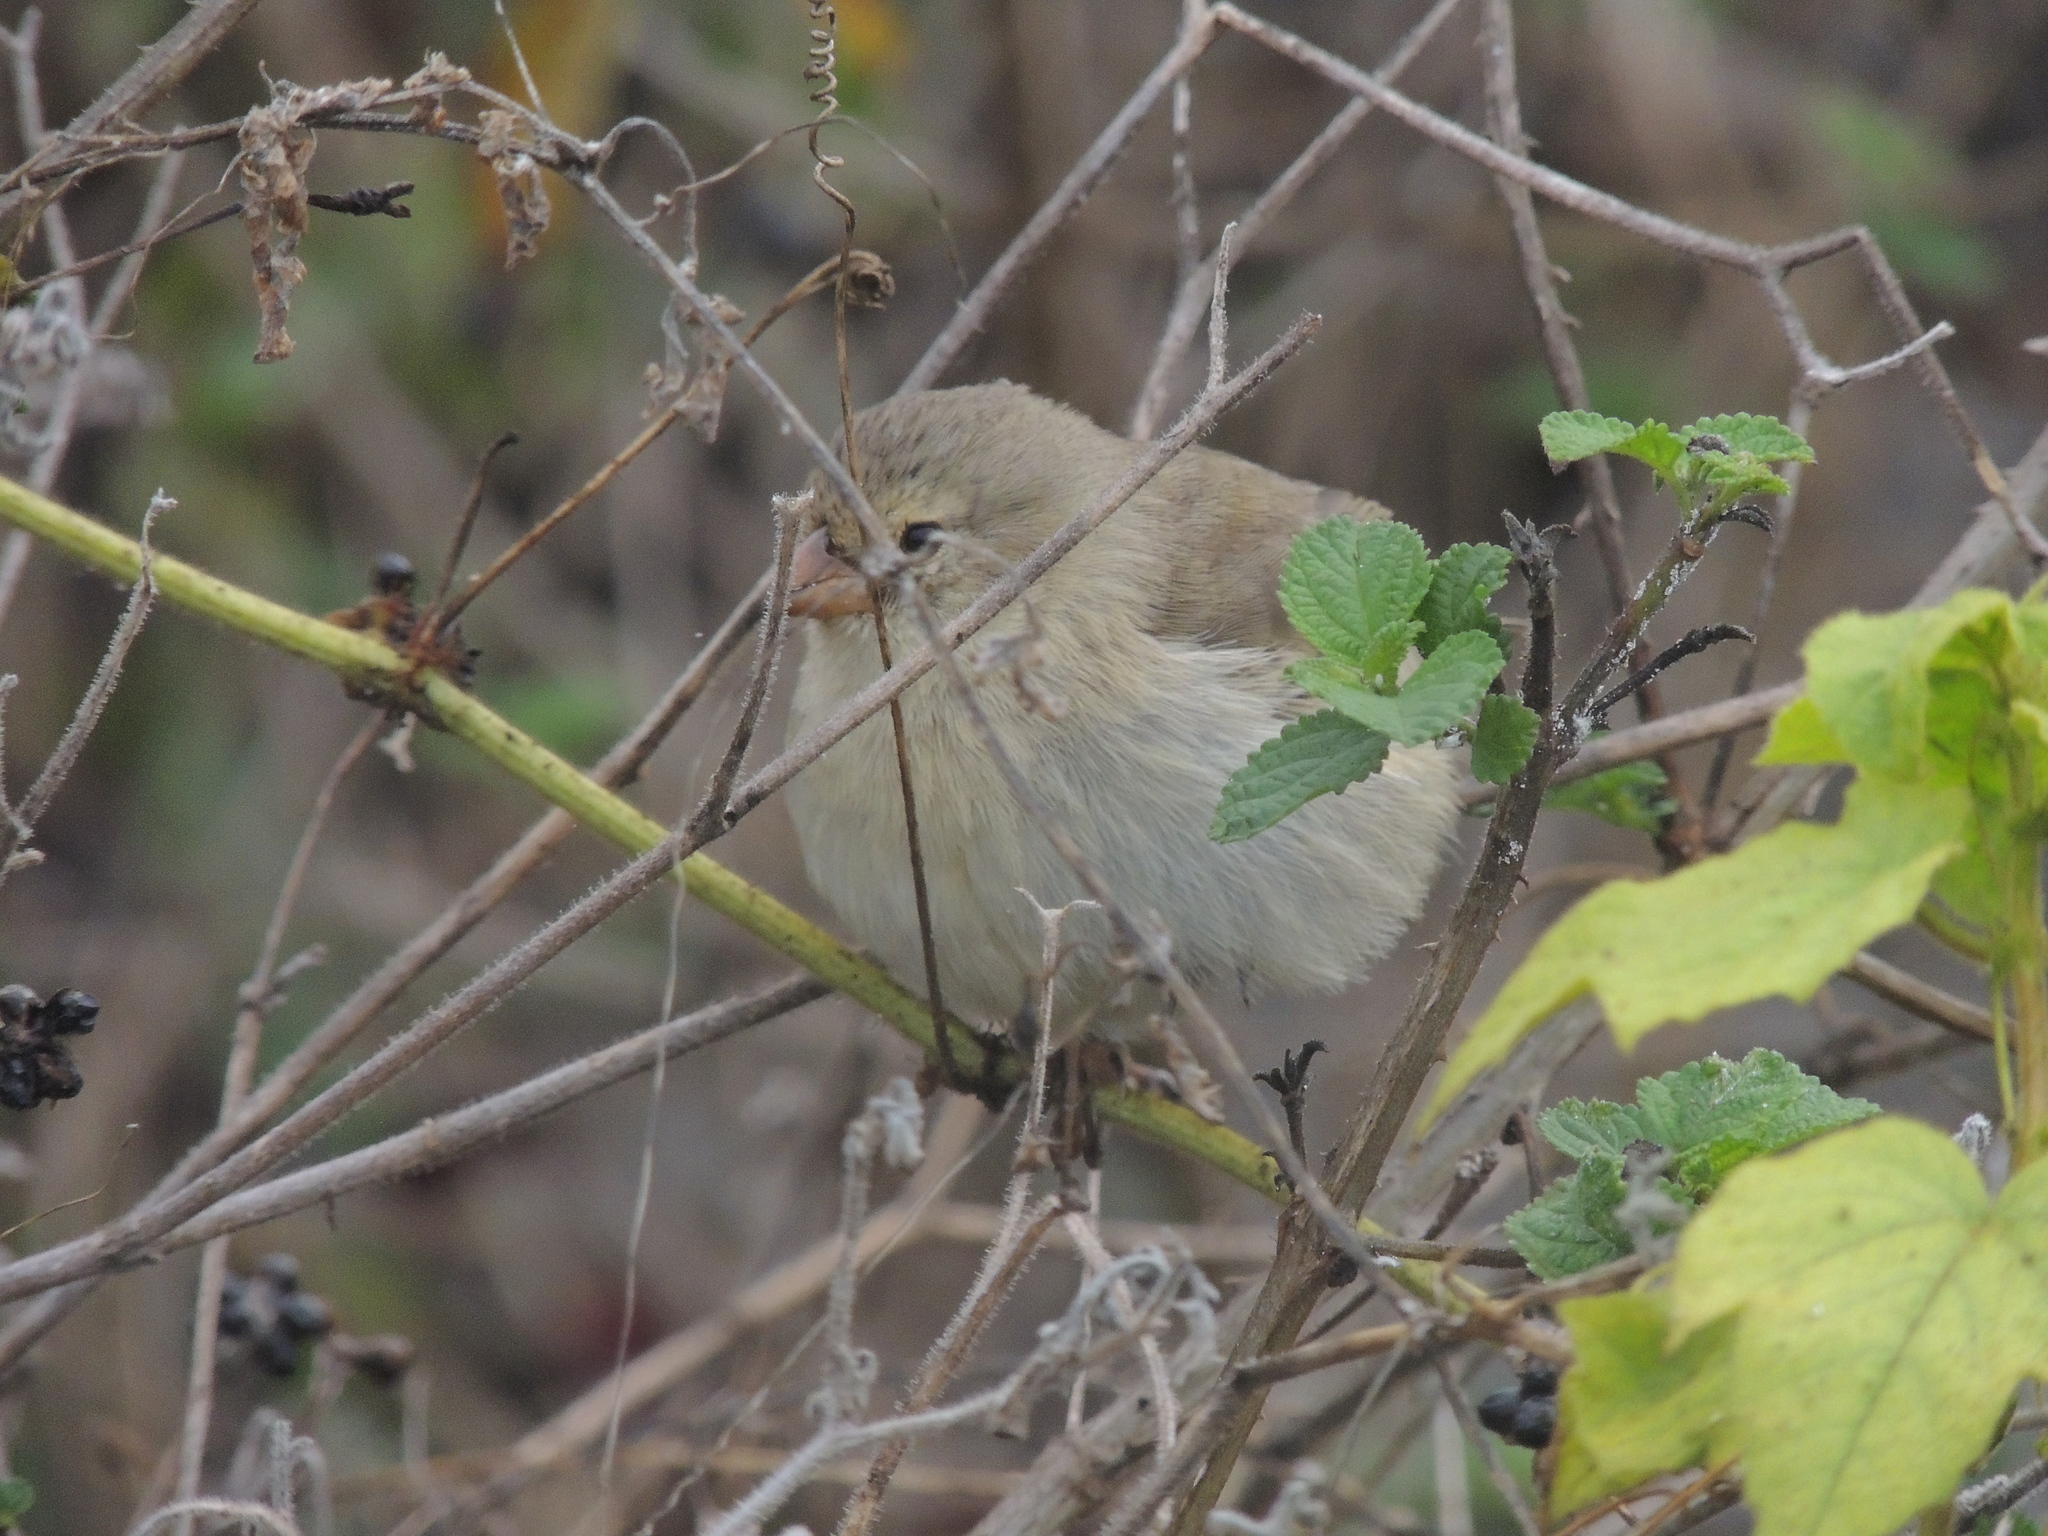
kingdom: Animalia
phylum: Chordata
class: Aves
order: Passeriformes
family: Thraupidae
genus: Geospiza
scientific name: Geospiza fuliginosa
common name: Small ground finch
